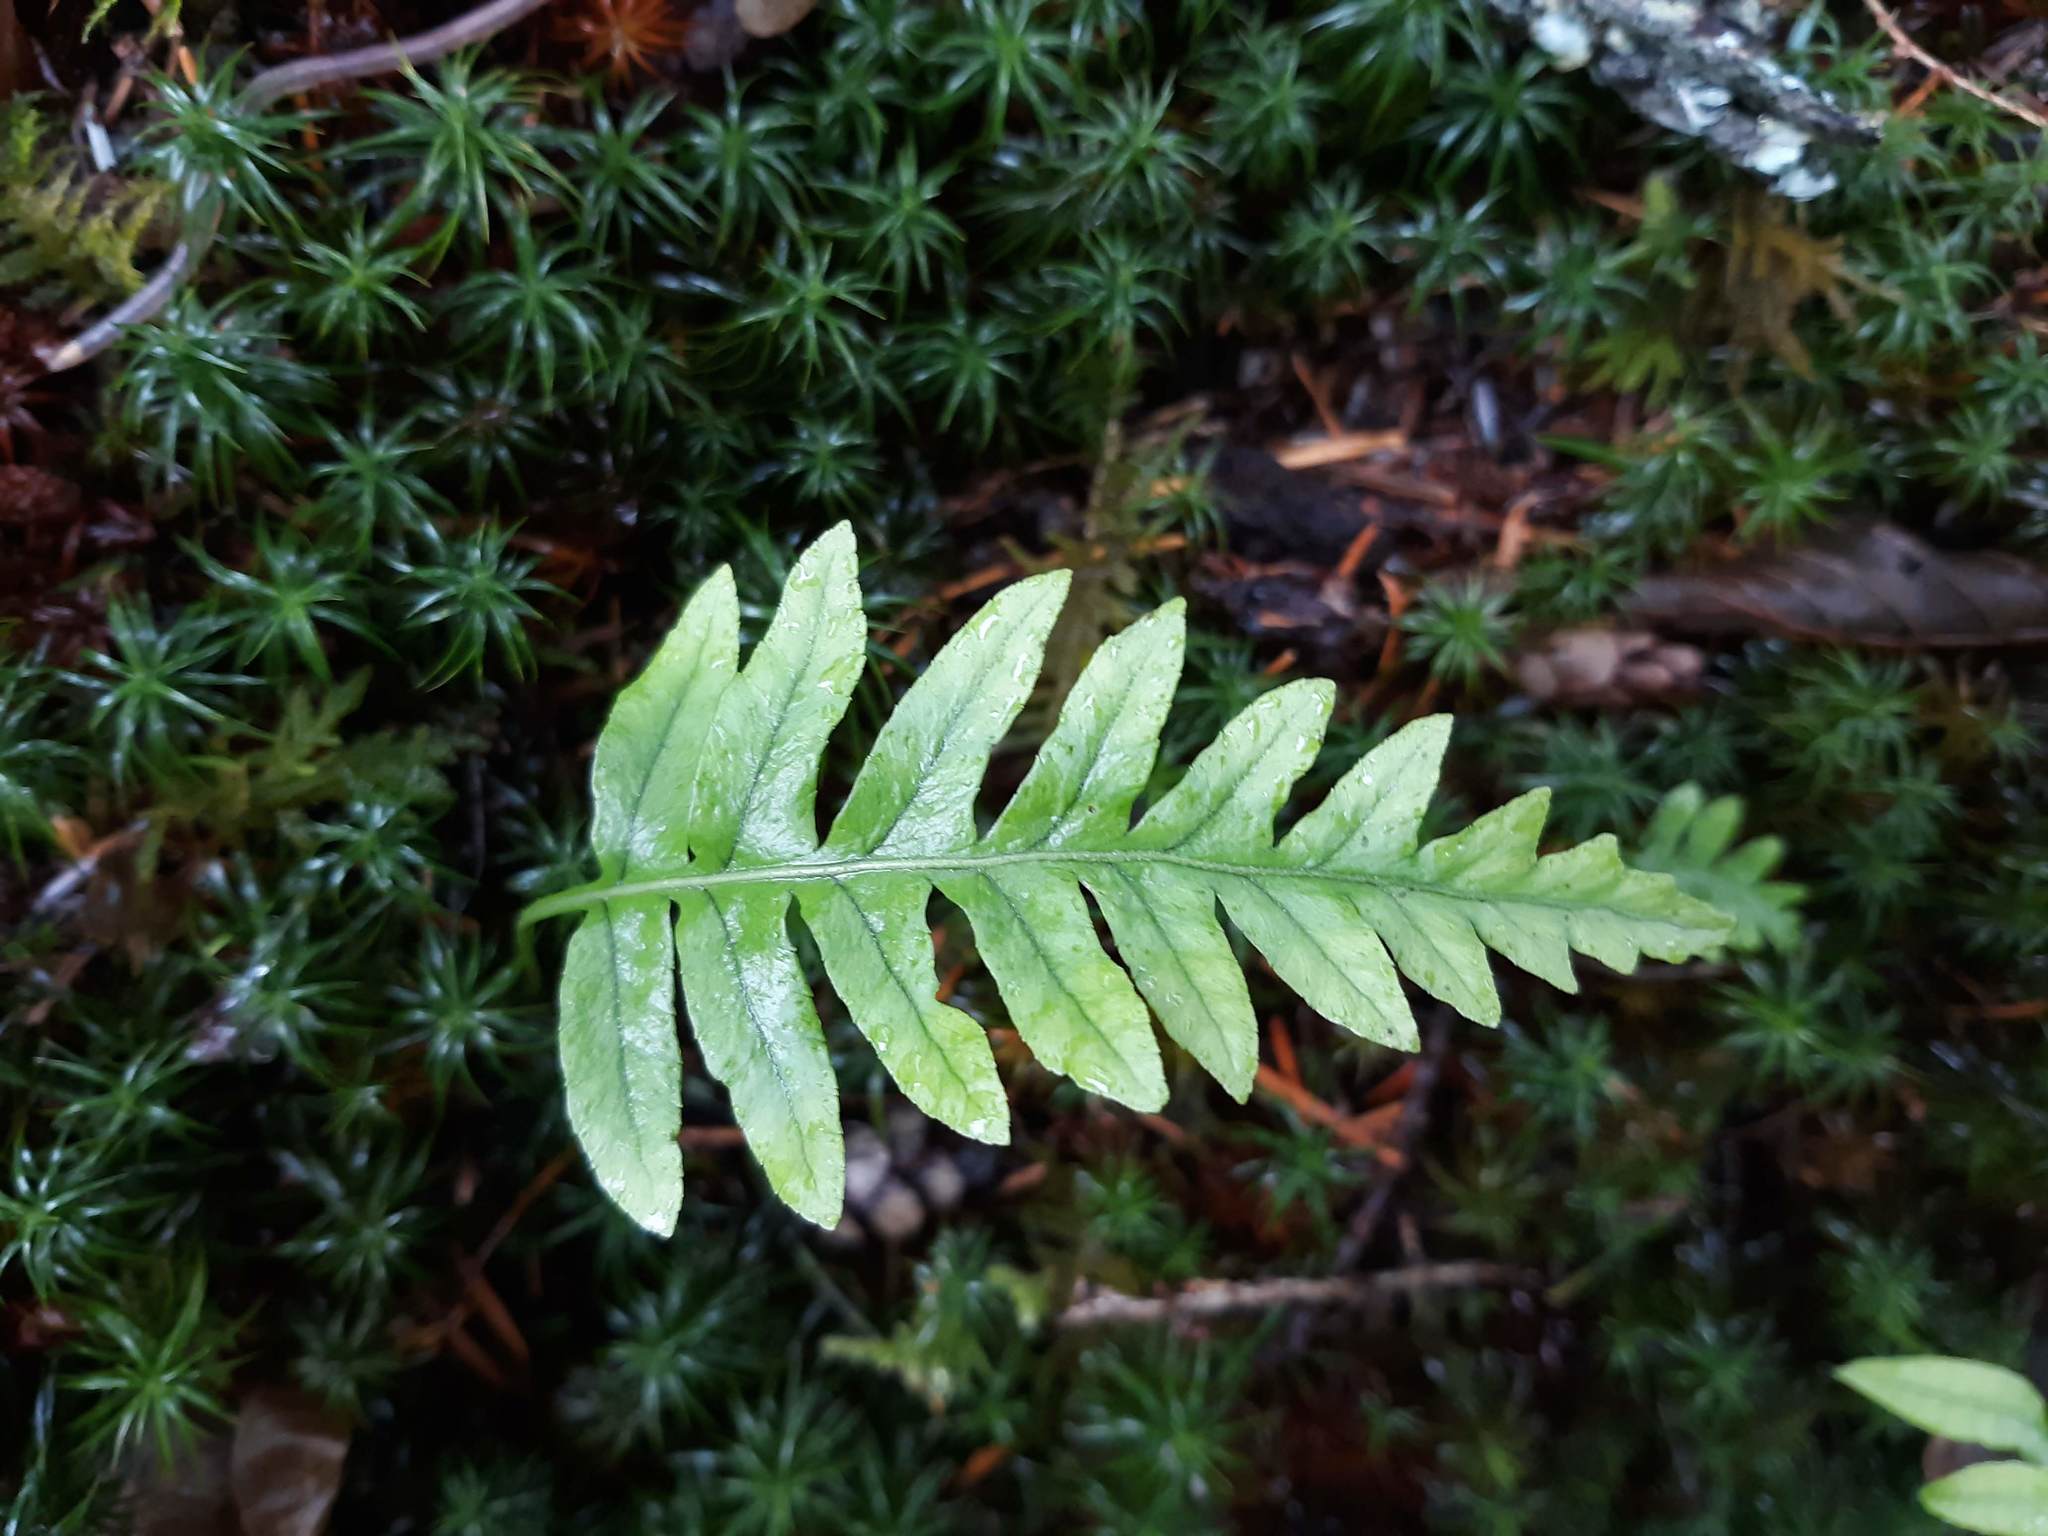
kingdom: Plantae
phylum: Tracheophyta
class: Polypodiopsida
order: Polypodiales
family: Polypodiaceae
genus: Polypodium
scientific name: Polypodium glycyrrhiza
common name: Licorice fern
